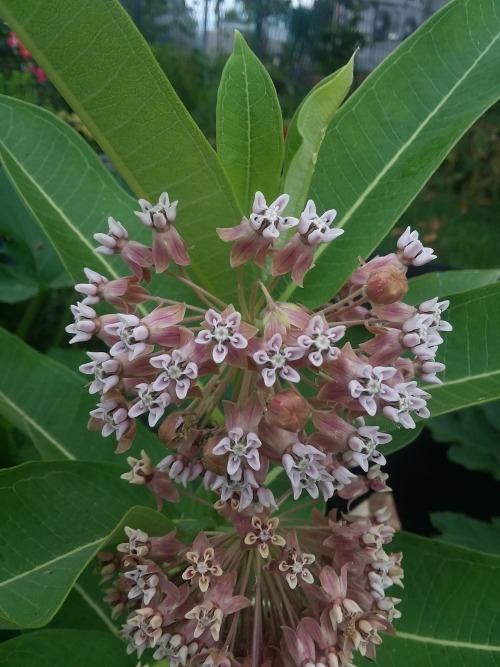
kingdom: Plantae
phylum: Tracheophyta
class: Magnoliopsida
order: Gentianales
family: Apocynaceae
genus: Asclepias
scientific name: Asclepias syriaca
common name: Common milkweed
